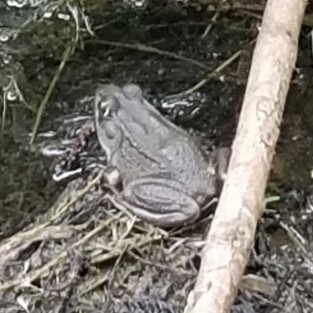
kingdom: Animalia
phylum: Chordata
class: Amphibia
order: Anura
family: Ranidae
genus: Lithobates
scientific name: Lithobates clamitans
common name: Green frog
